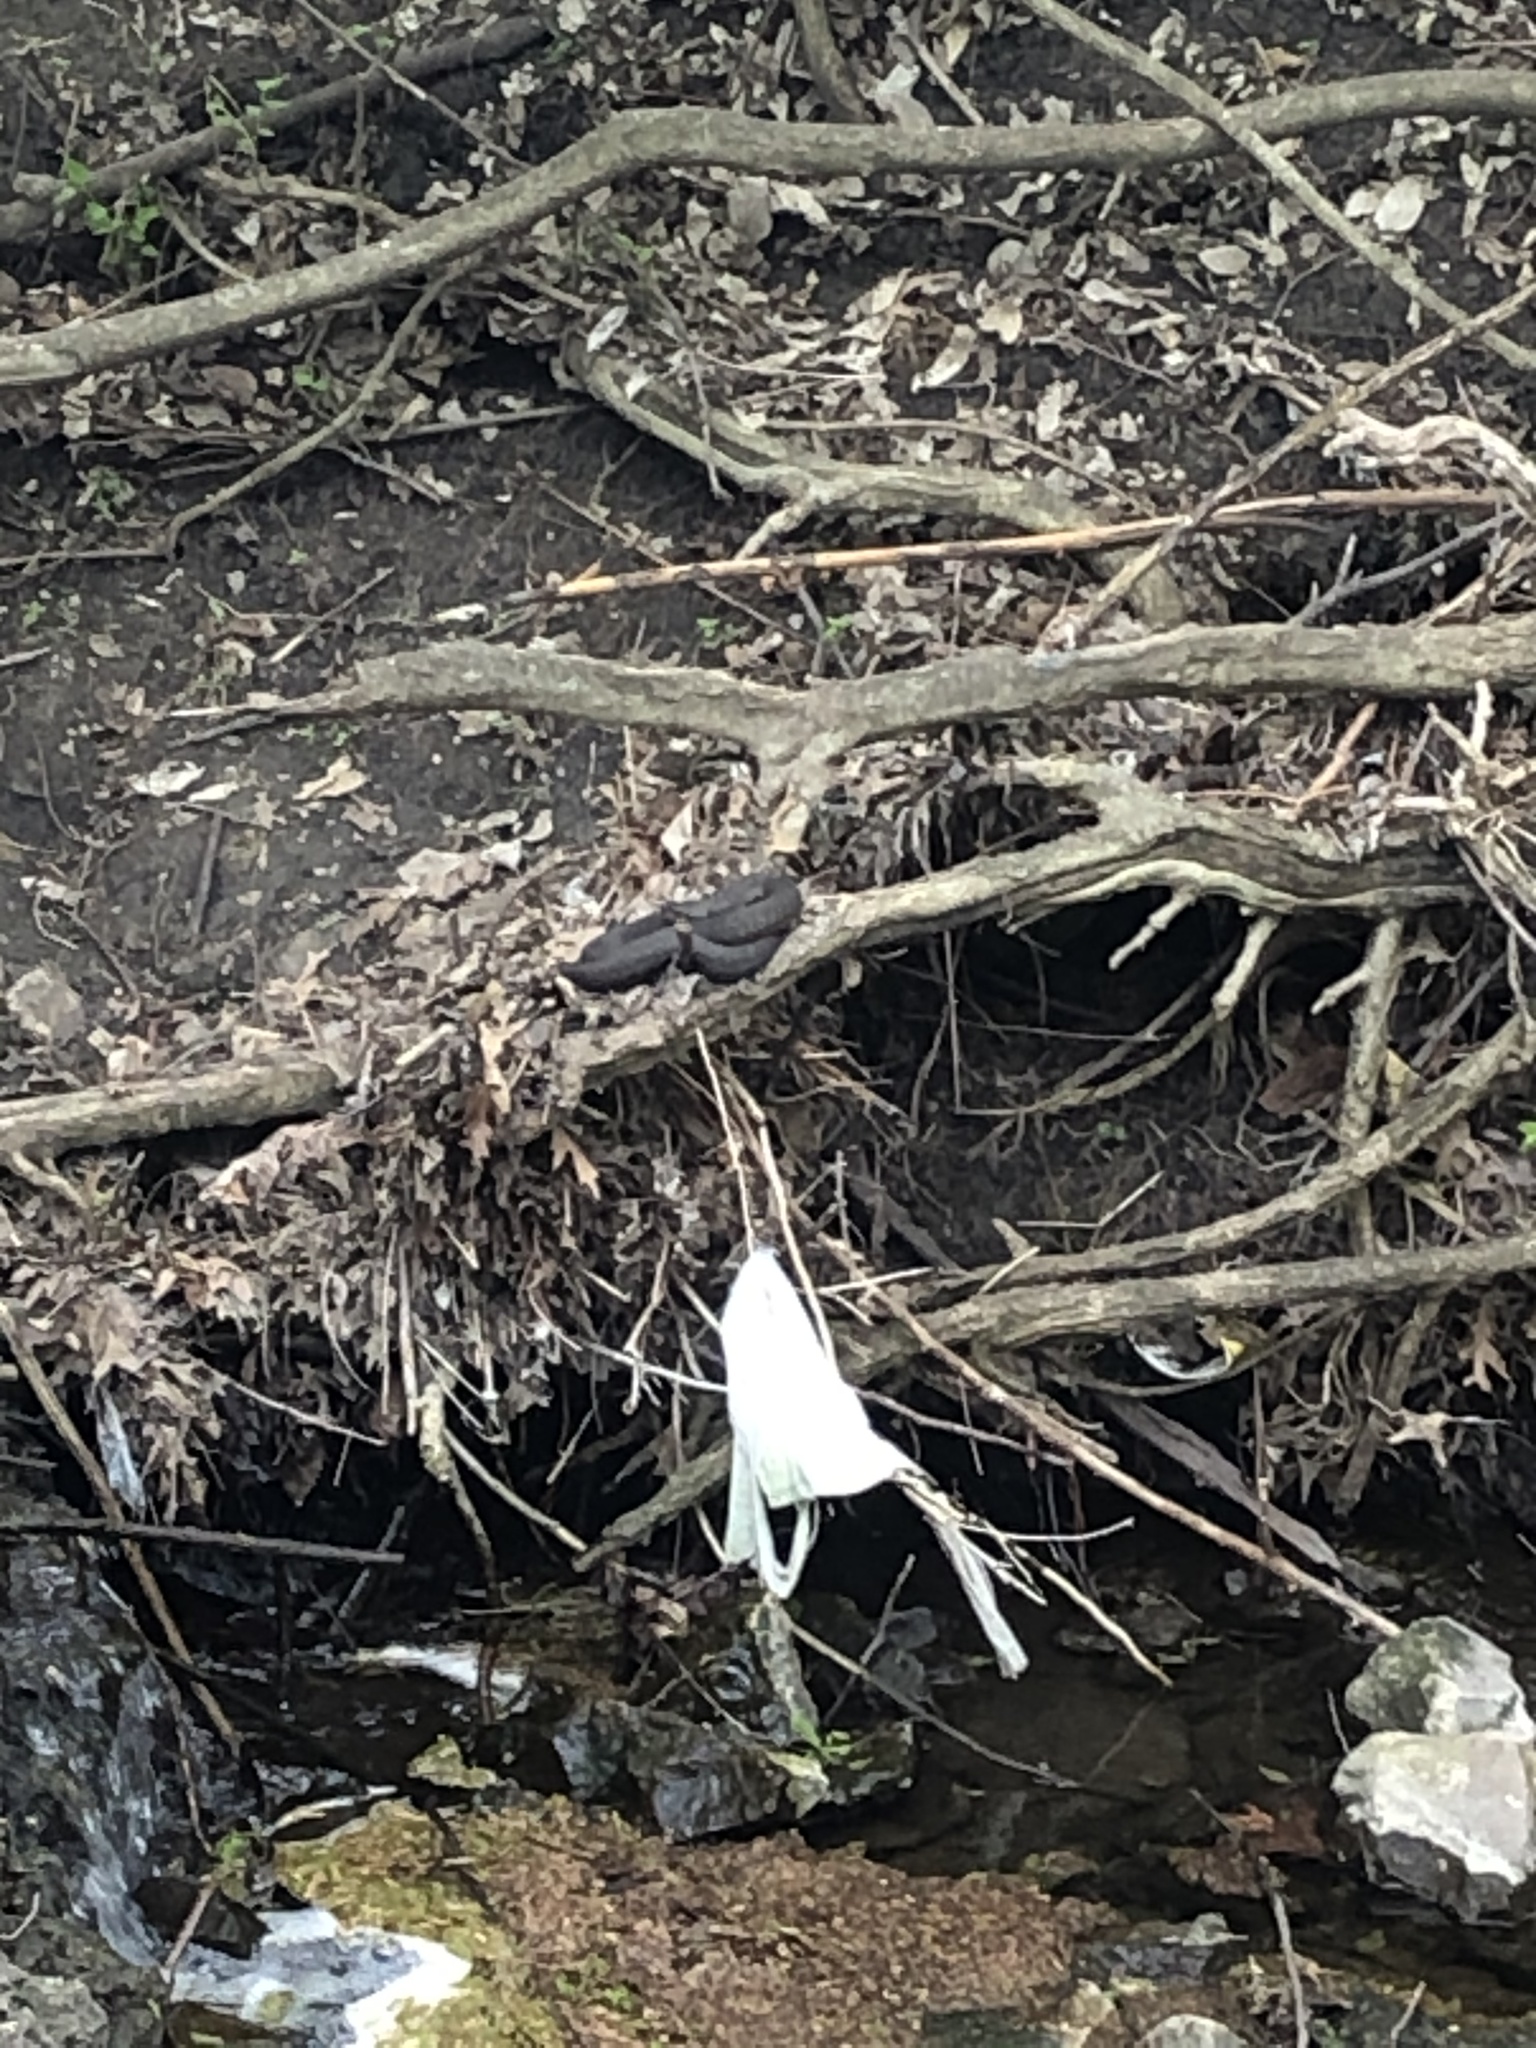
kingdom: Animalia
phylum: Chordata
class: Squamata
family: Colubridae
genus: Nerodia
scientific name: Nerodia
